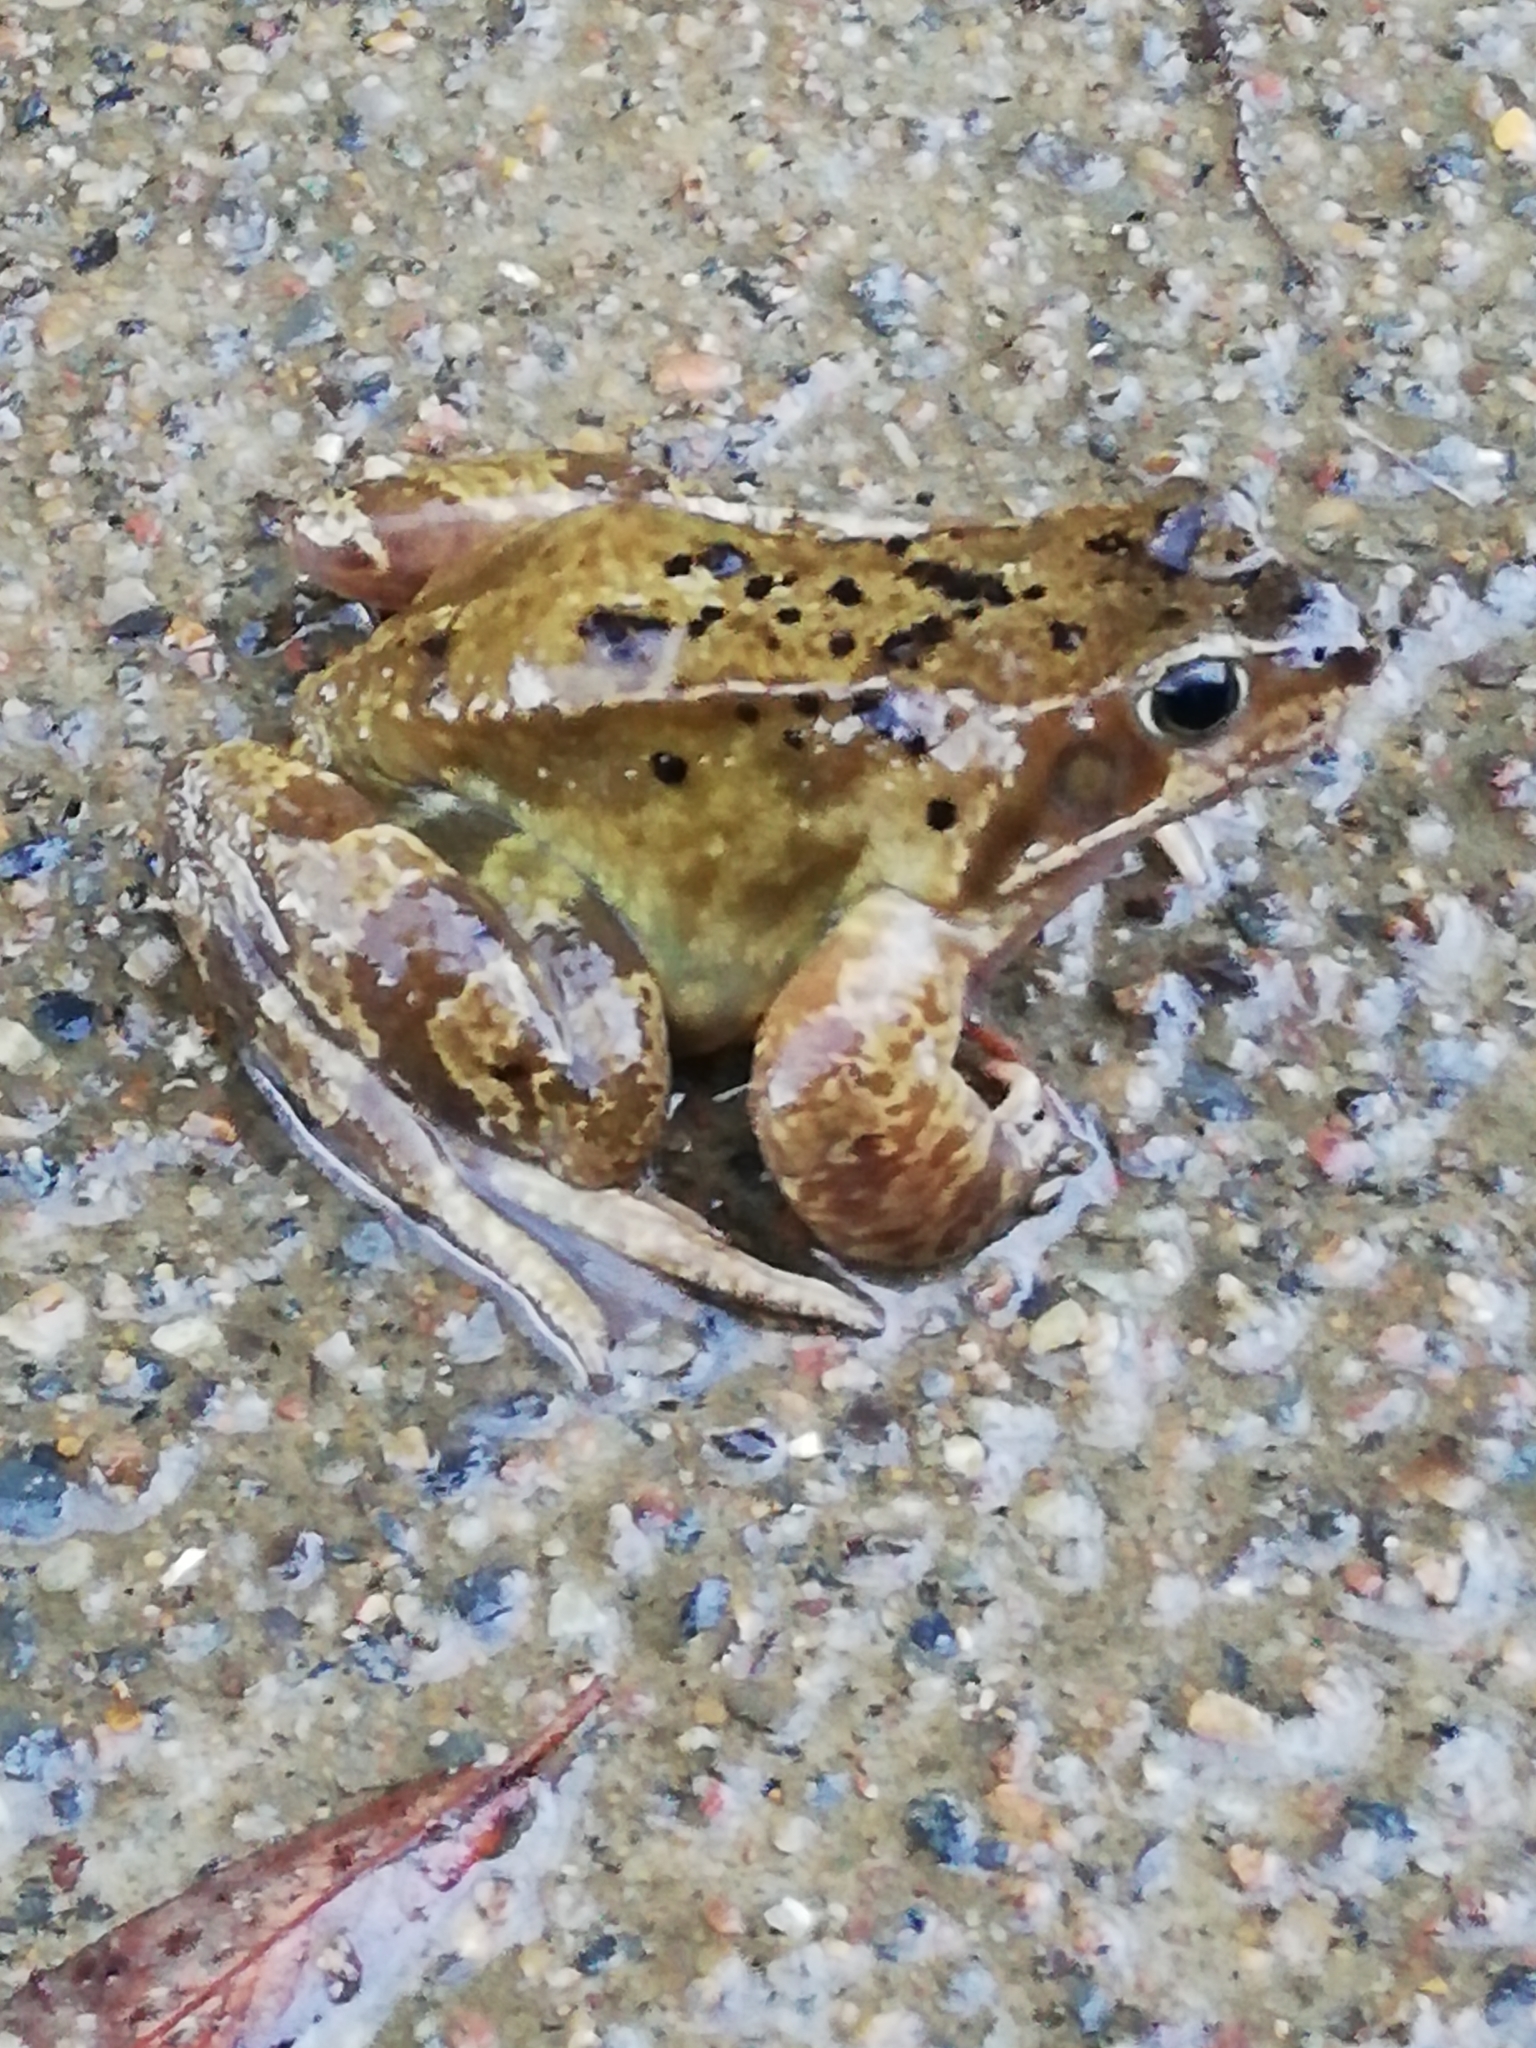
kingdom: Animalia
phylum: Chordata
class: Amphibia
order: Anura
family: Ranidae
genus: Rana
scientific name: Rana temporaria
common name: Common frog
